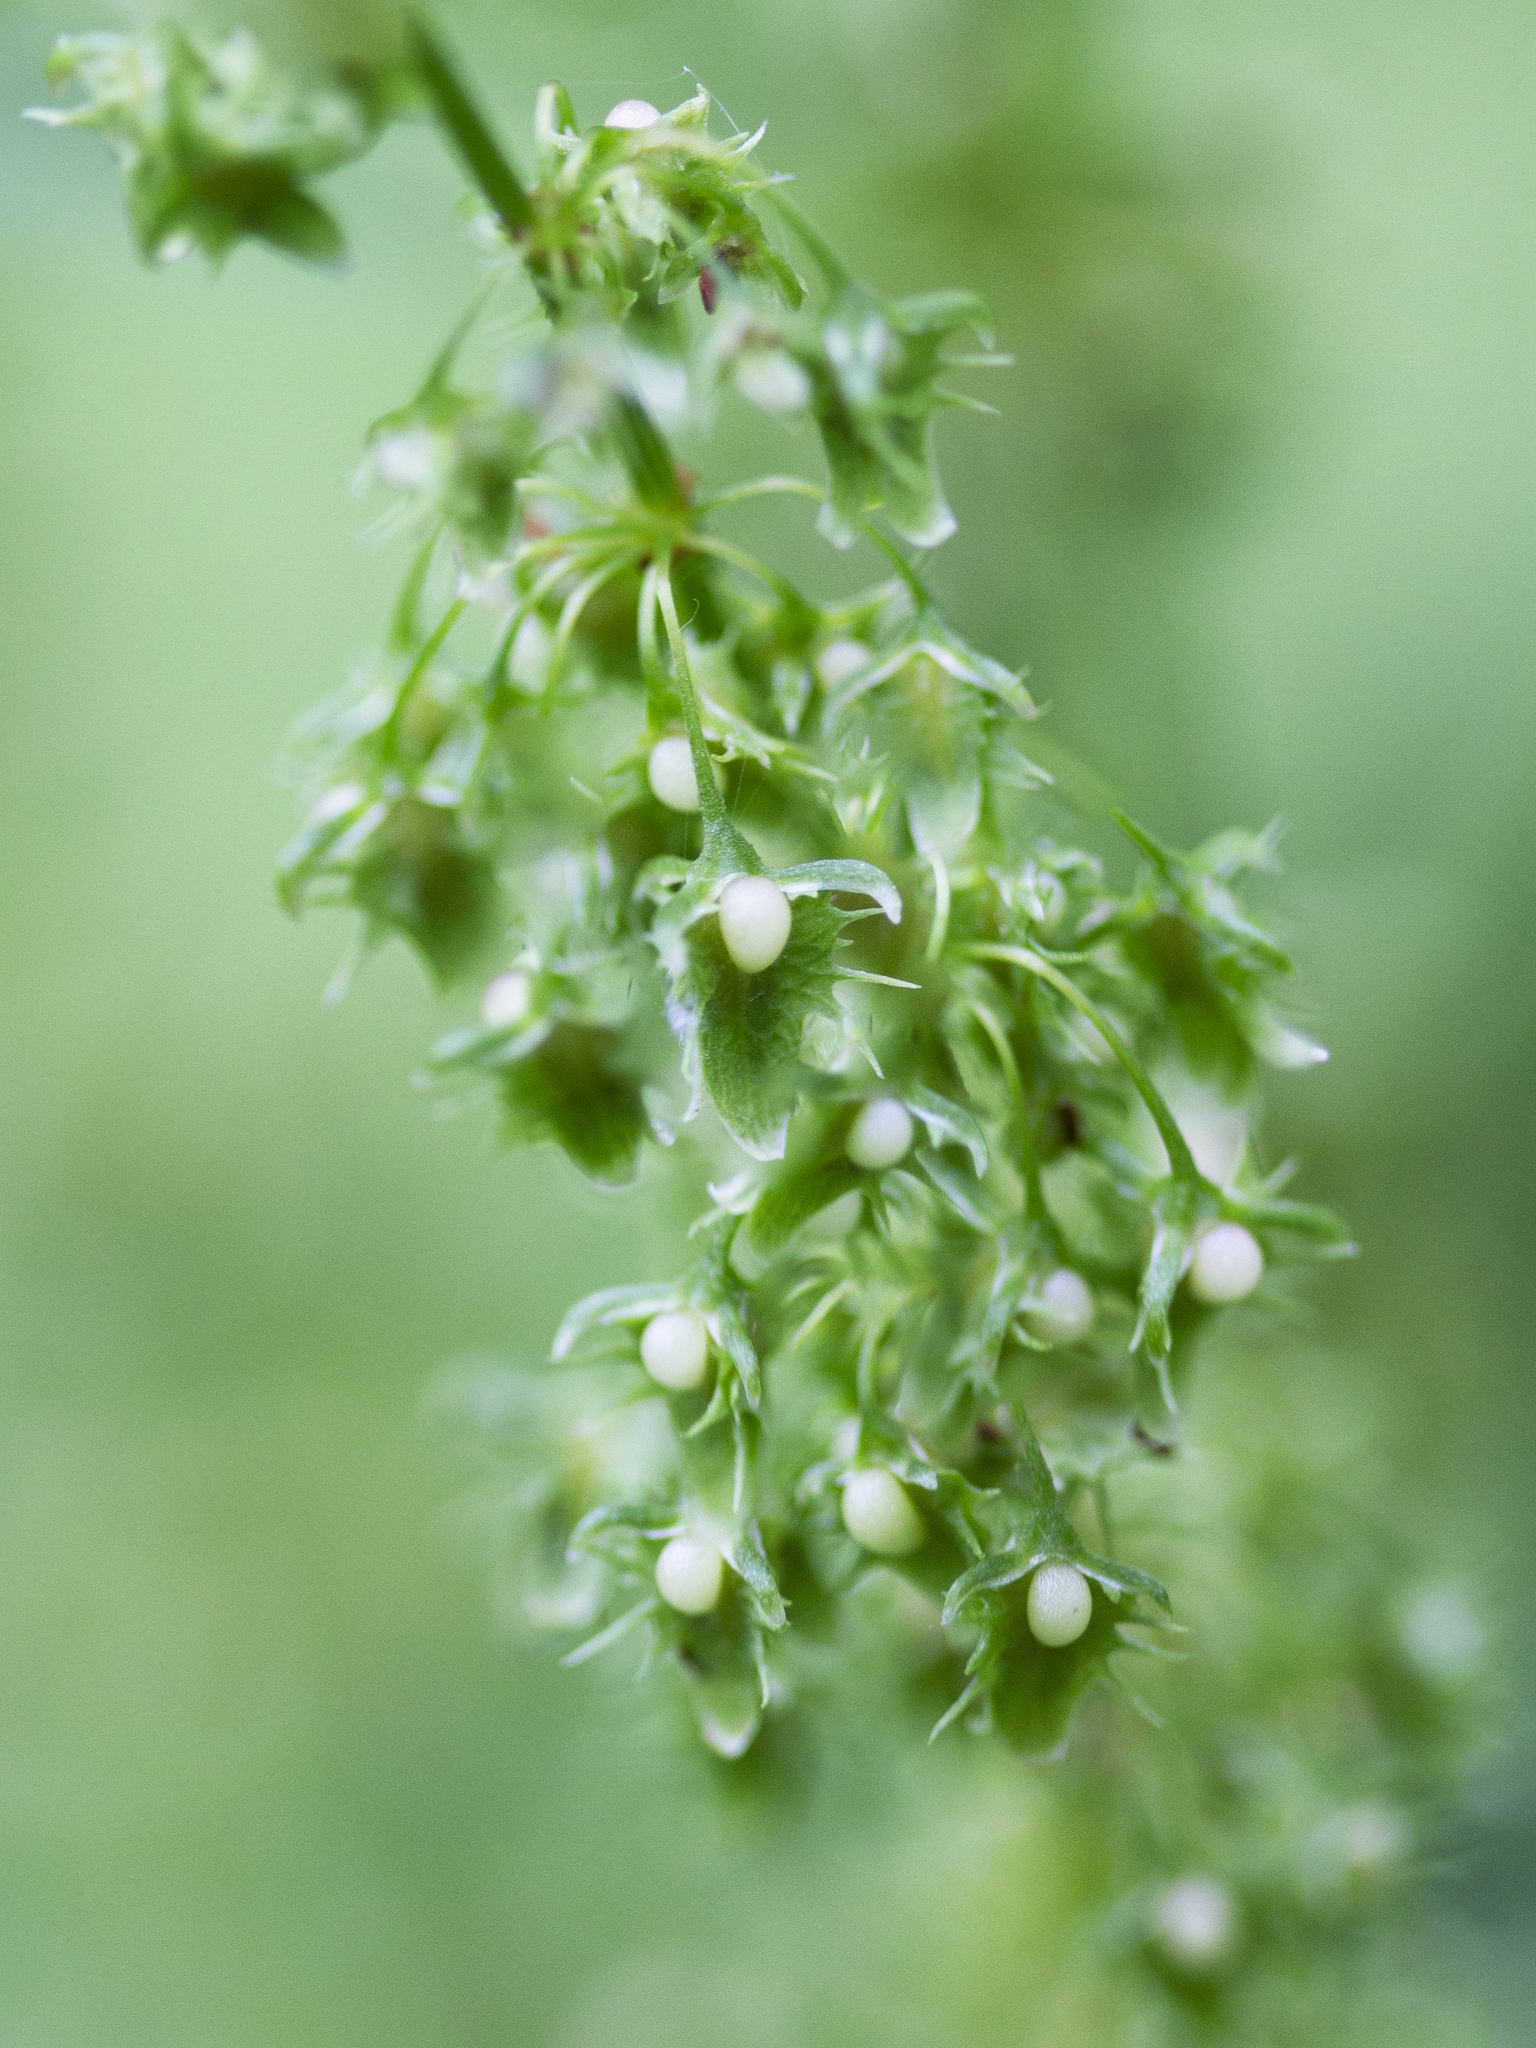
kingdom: Plantae
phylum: Tracheophyta
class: Magnoliopsida
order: Caryophyllales
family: Polygonaceae
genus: Rumex
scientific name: Rumex obtusifolius
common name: Bitter dock
